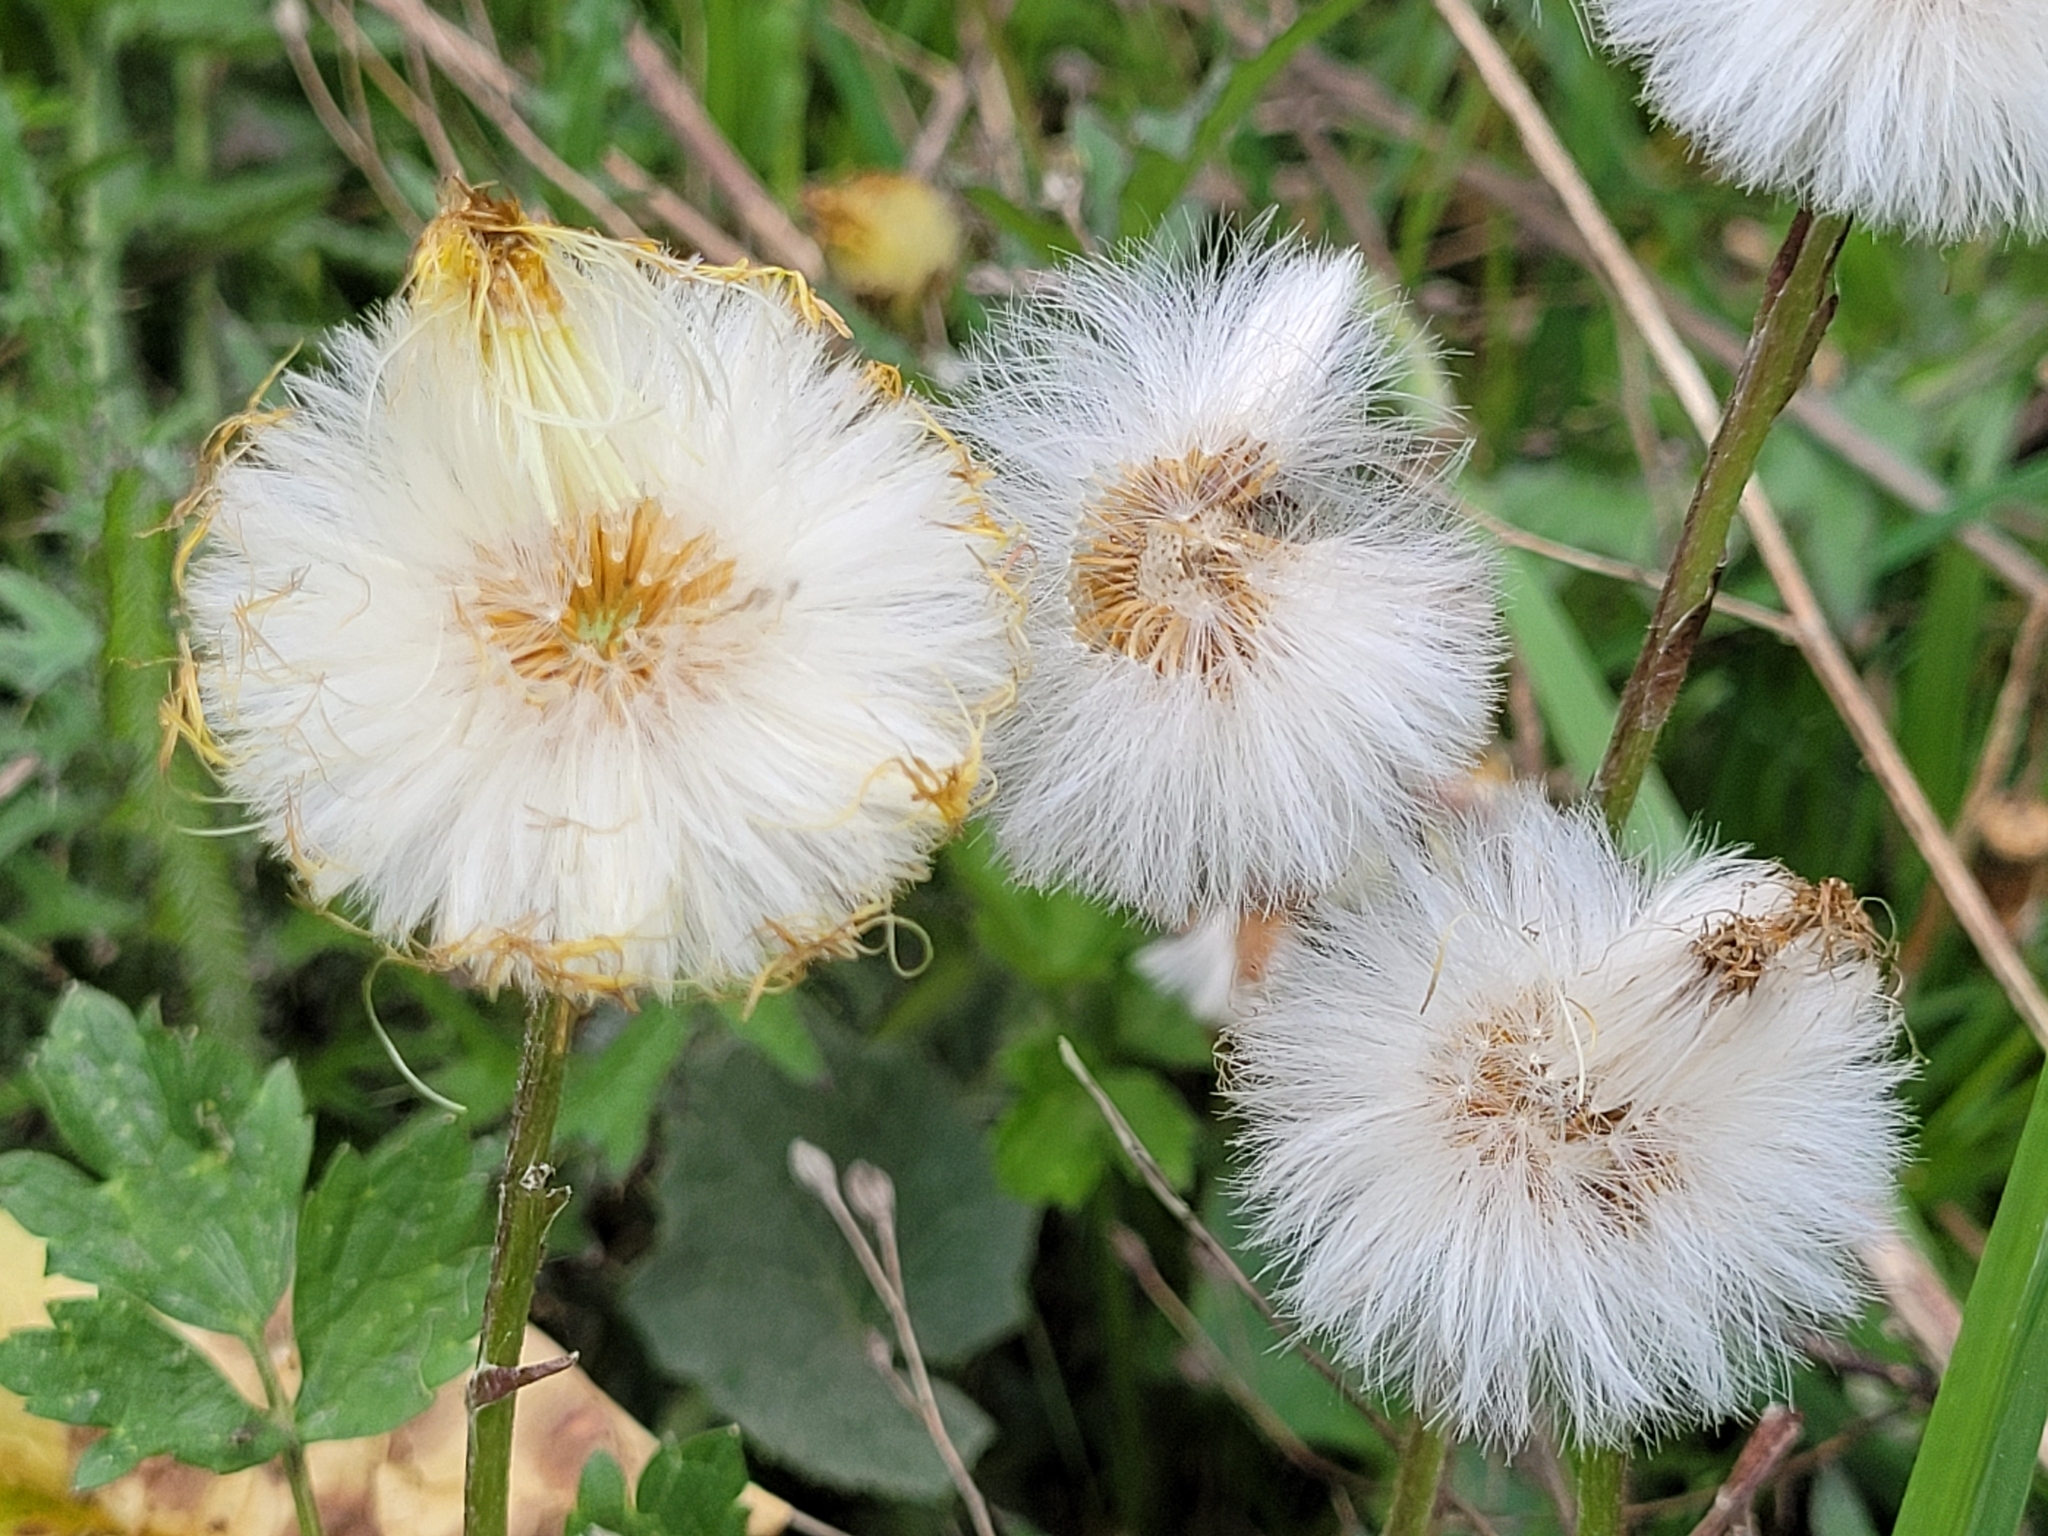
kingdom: Plantae
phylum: Tracheophyta
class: Magnoliopsida
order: Asterales
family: Asteraceae
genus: Tussilago
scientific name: Tussilago farfara
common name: Coltsfoot
